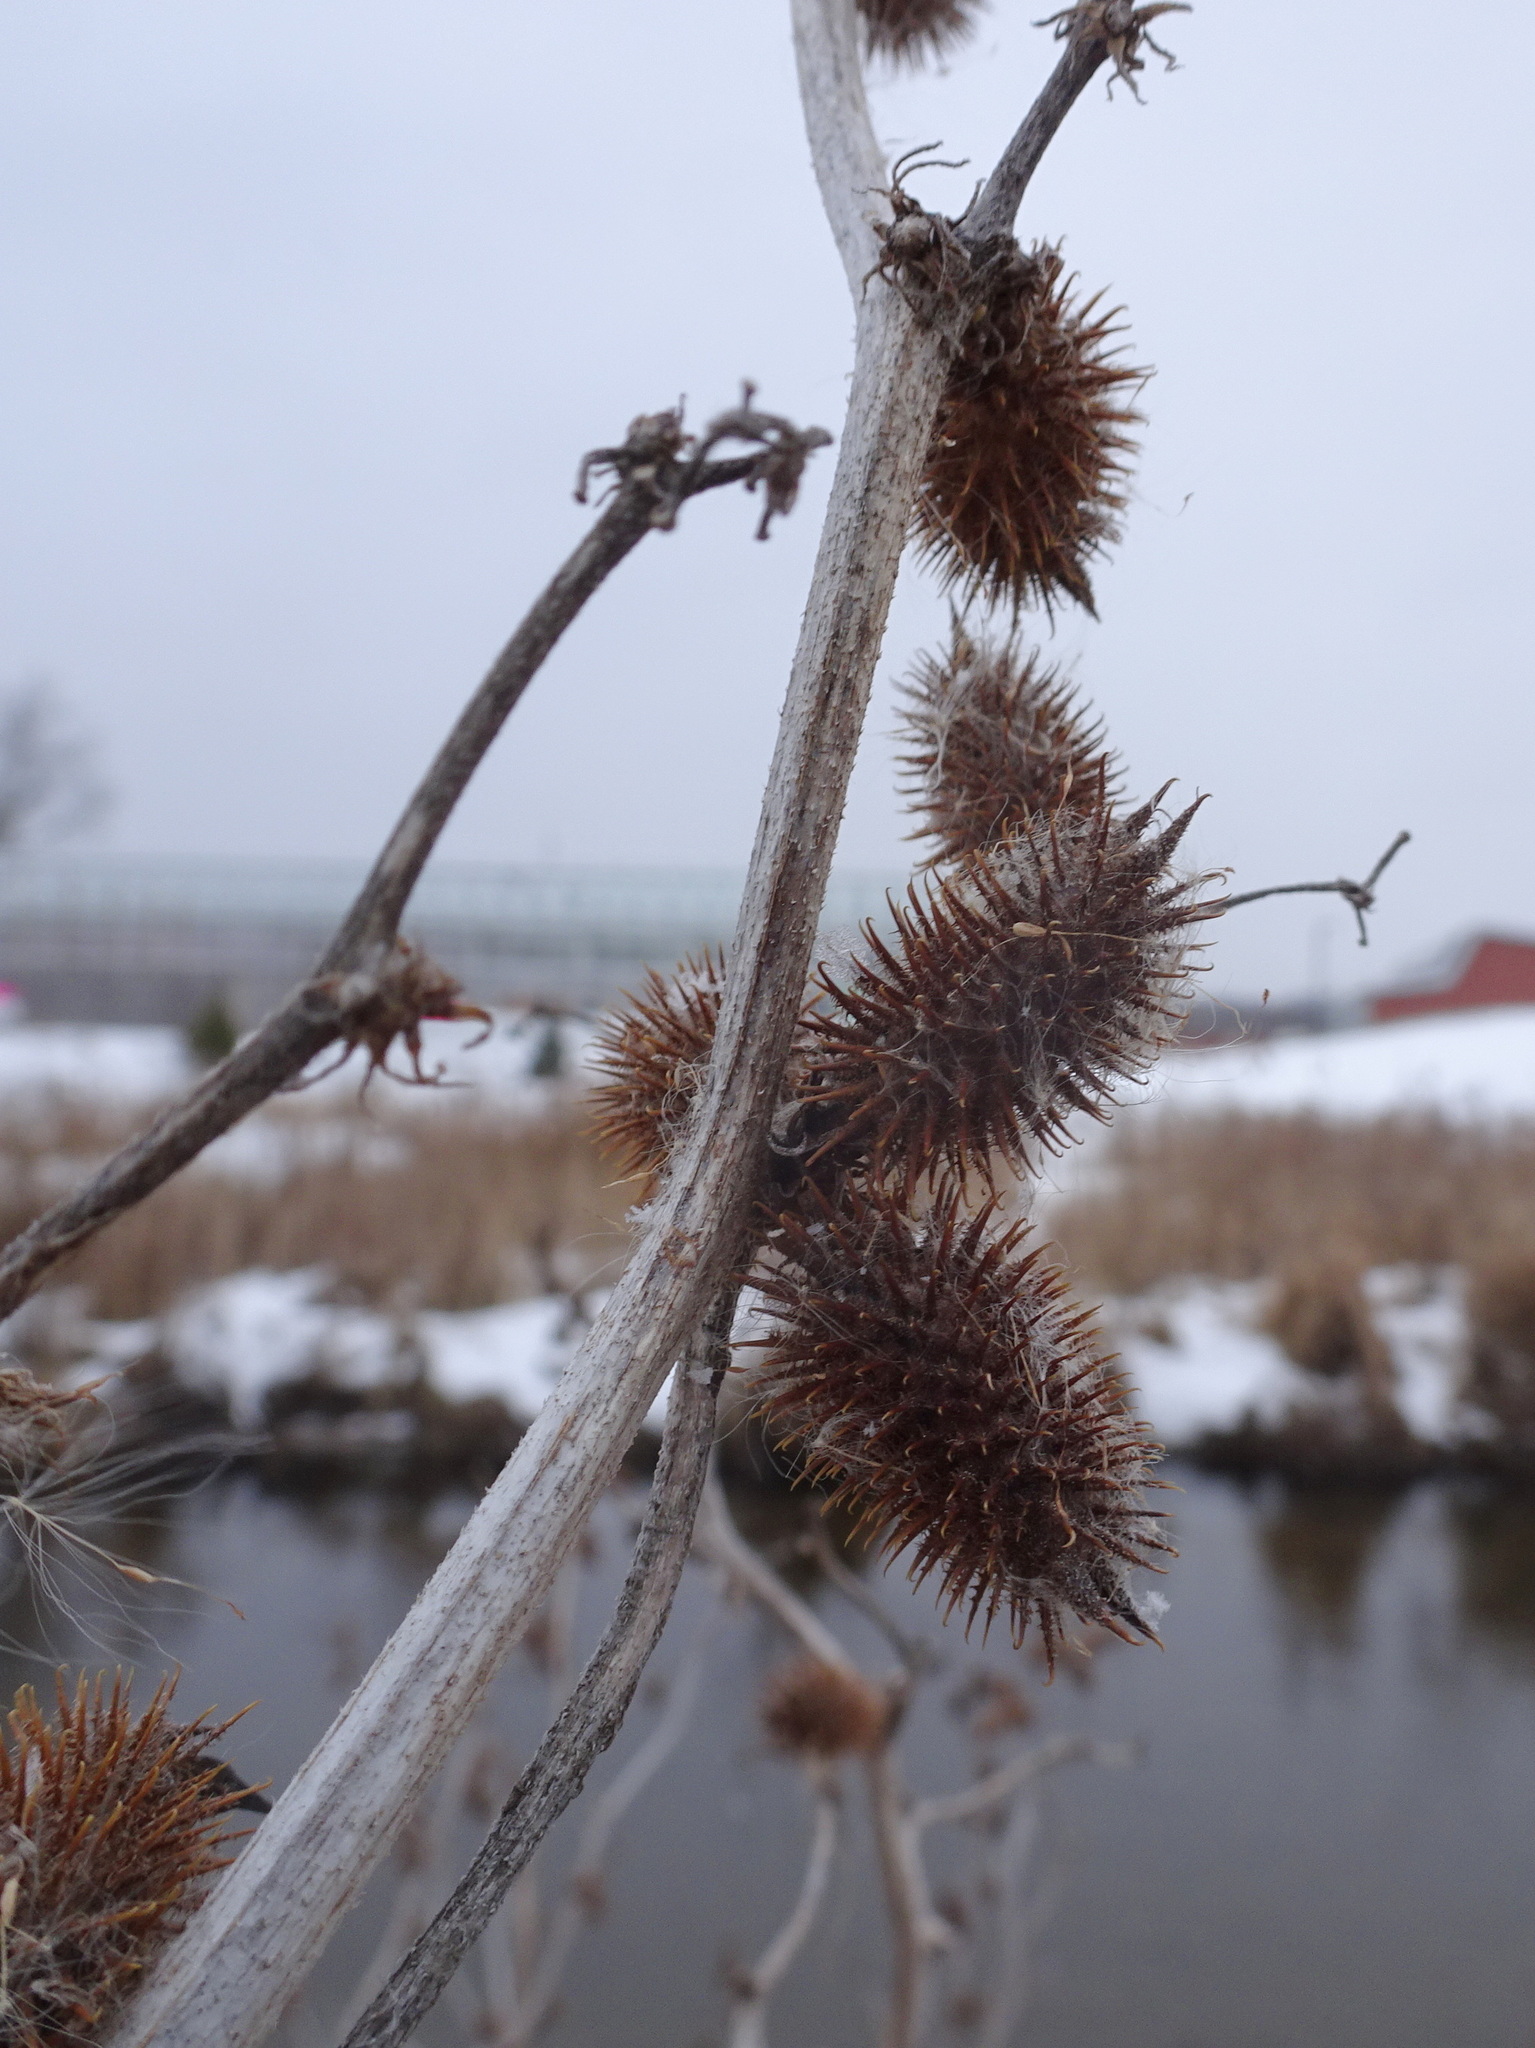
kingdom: Plantae
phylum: Tracheophyta
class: Magnoliopsida
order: Asterales
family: Asteraceae
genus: Xanthium
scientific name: Xanthium strumarium
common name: Rough cocklebur
